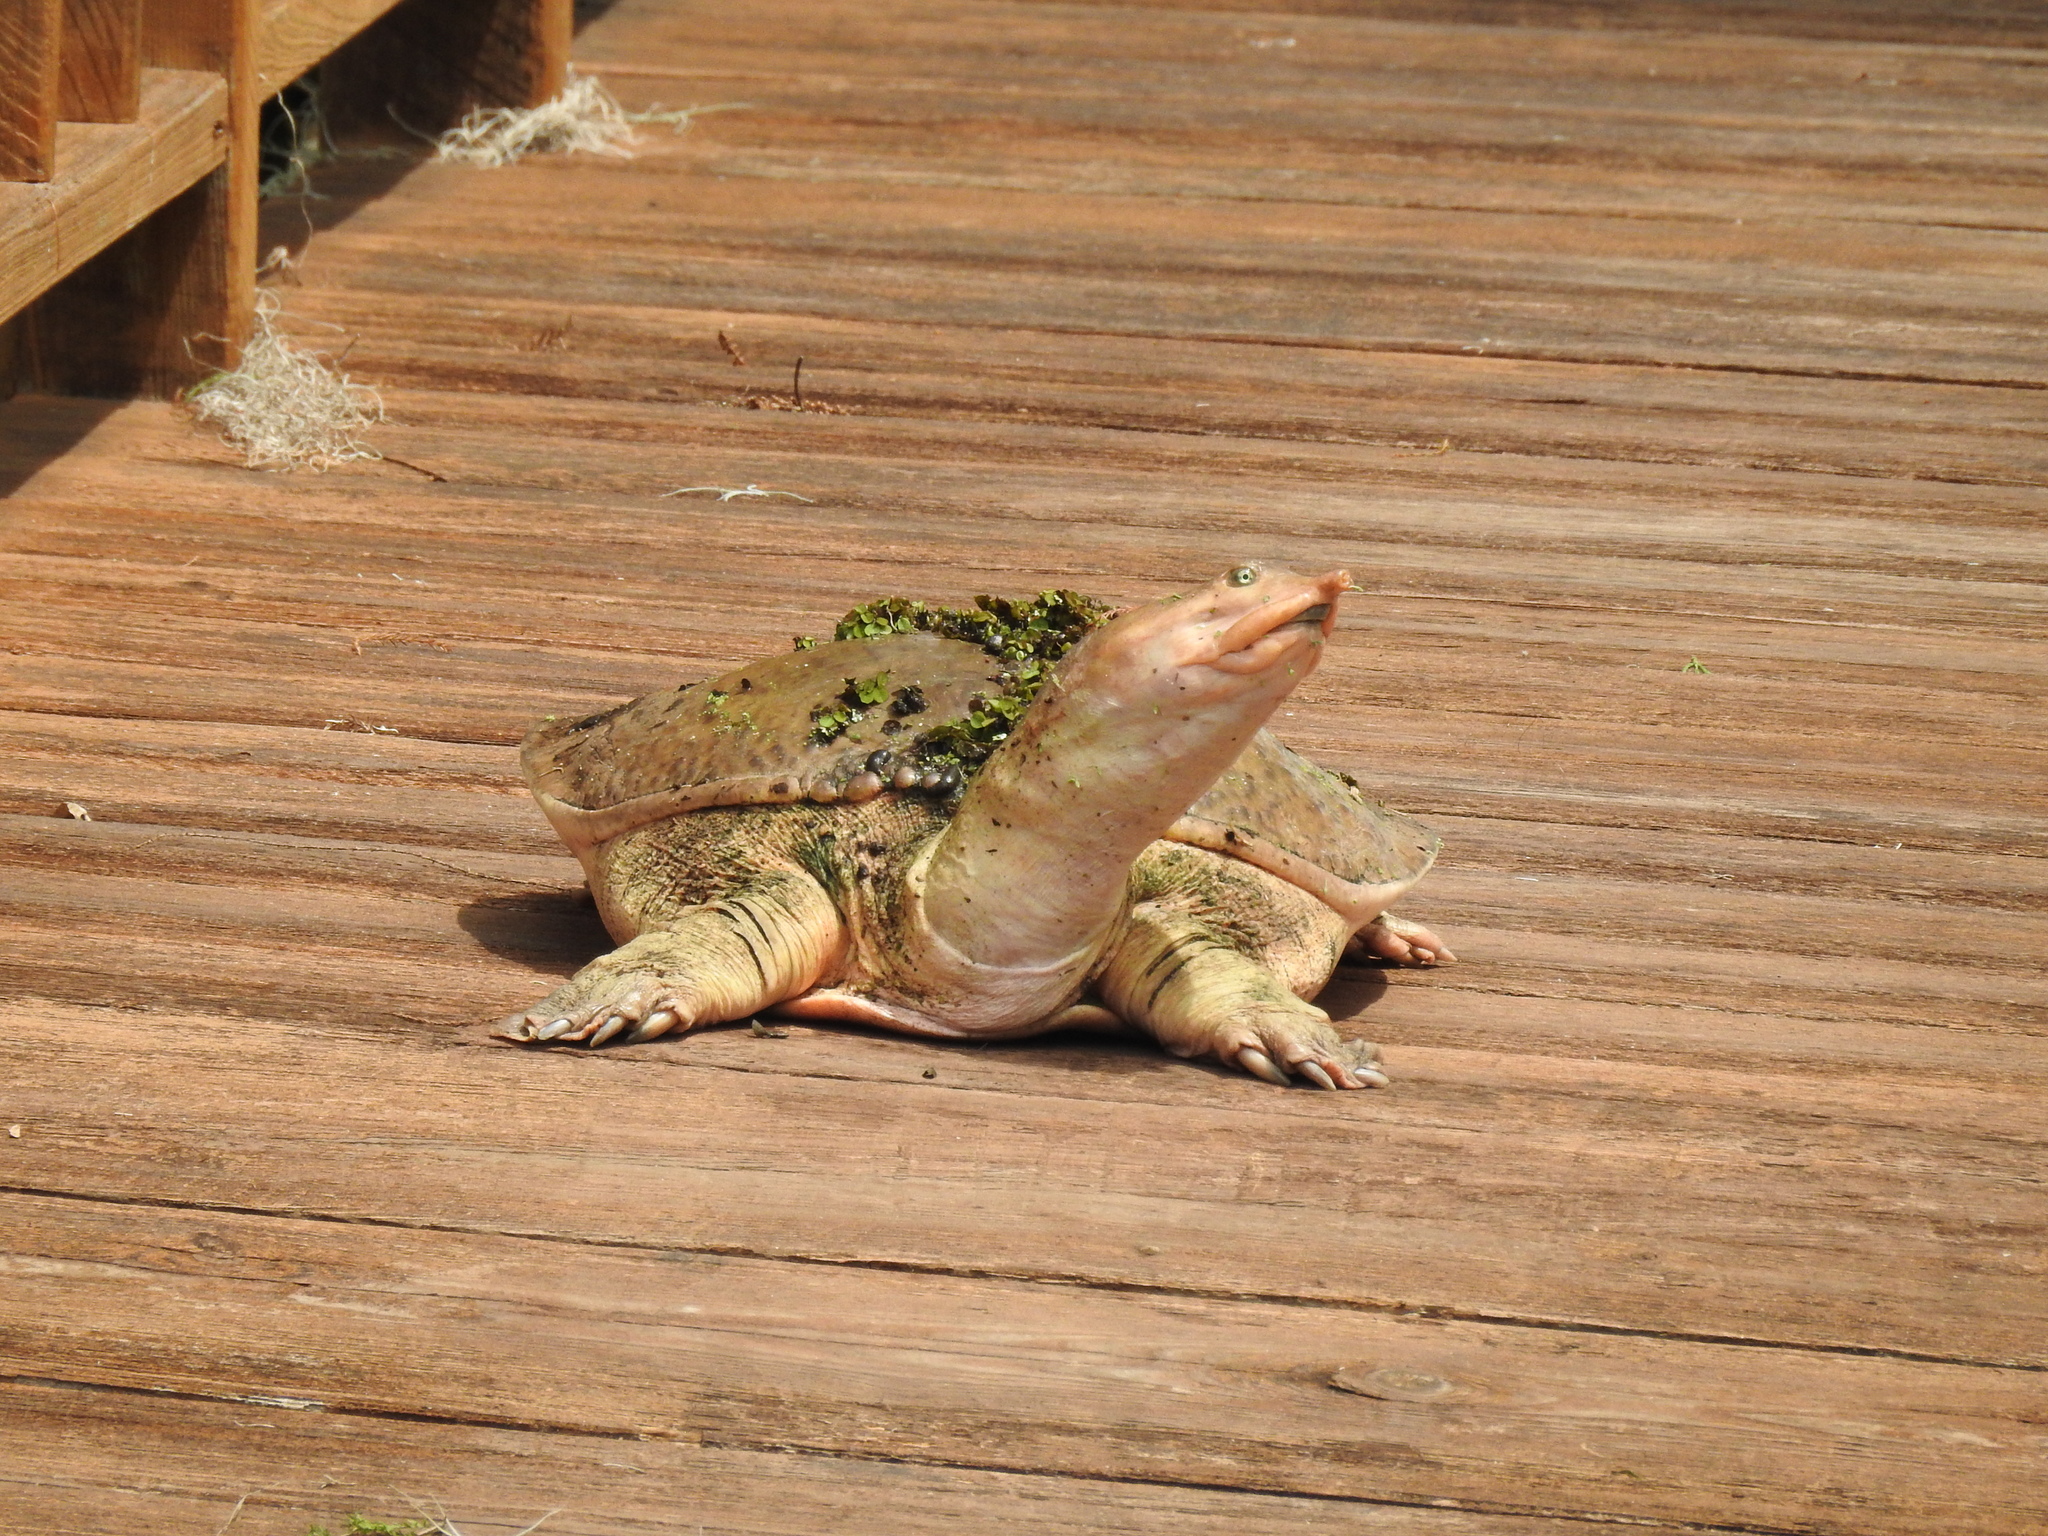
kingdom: Animalia
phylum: Chordata
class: Testudines
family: Trionychidae
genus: Apalone
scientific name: Apalone ferox
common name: Florida softshell turtle
